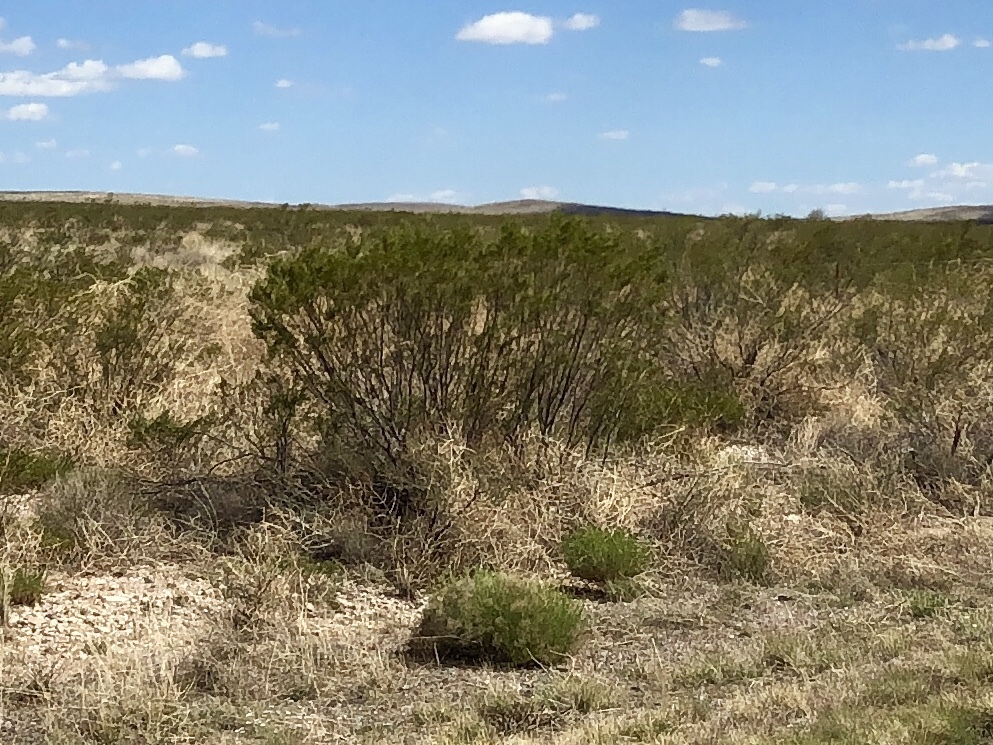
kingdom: Plantae
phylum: Tracheophyta
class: Magnoliopsida
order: Zygophyllales
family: Zygophyllaceae
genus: Larrea
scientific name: Larrea tridentata
